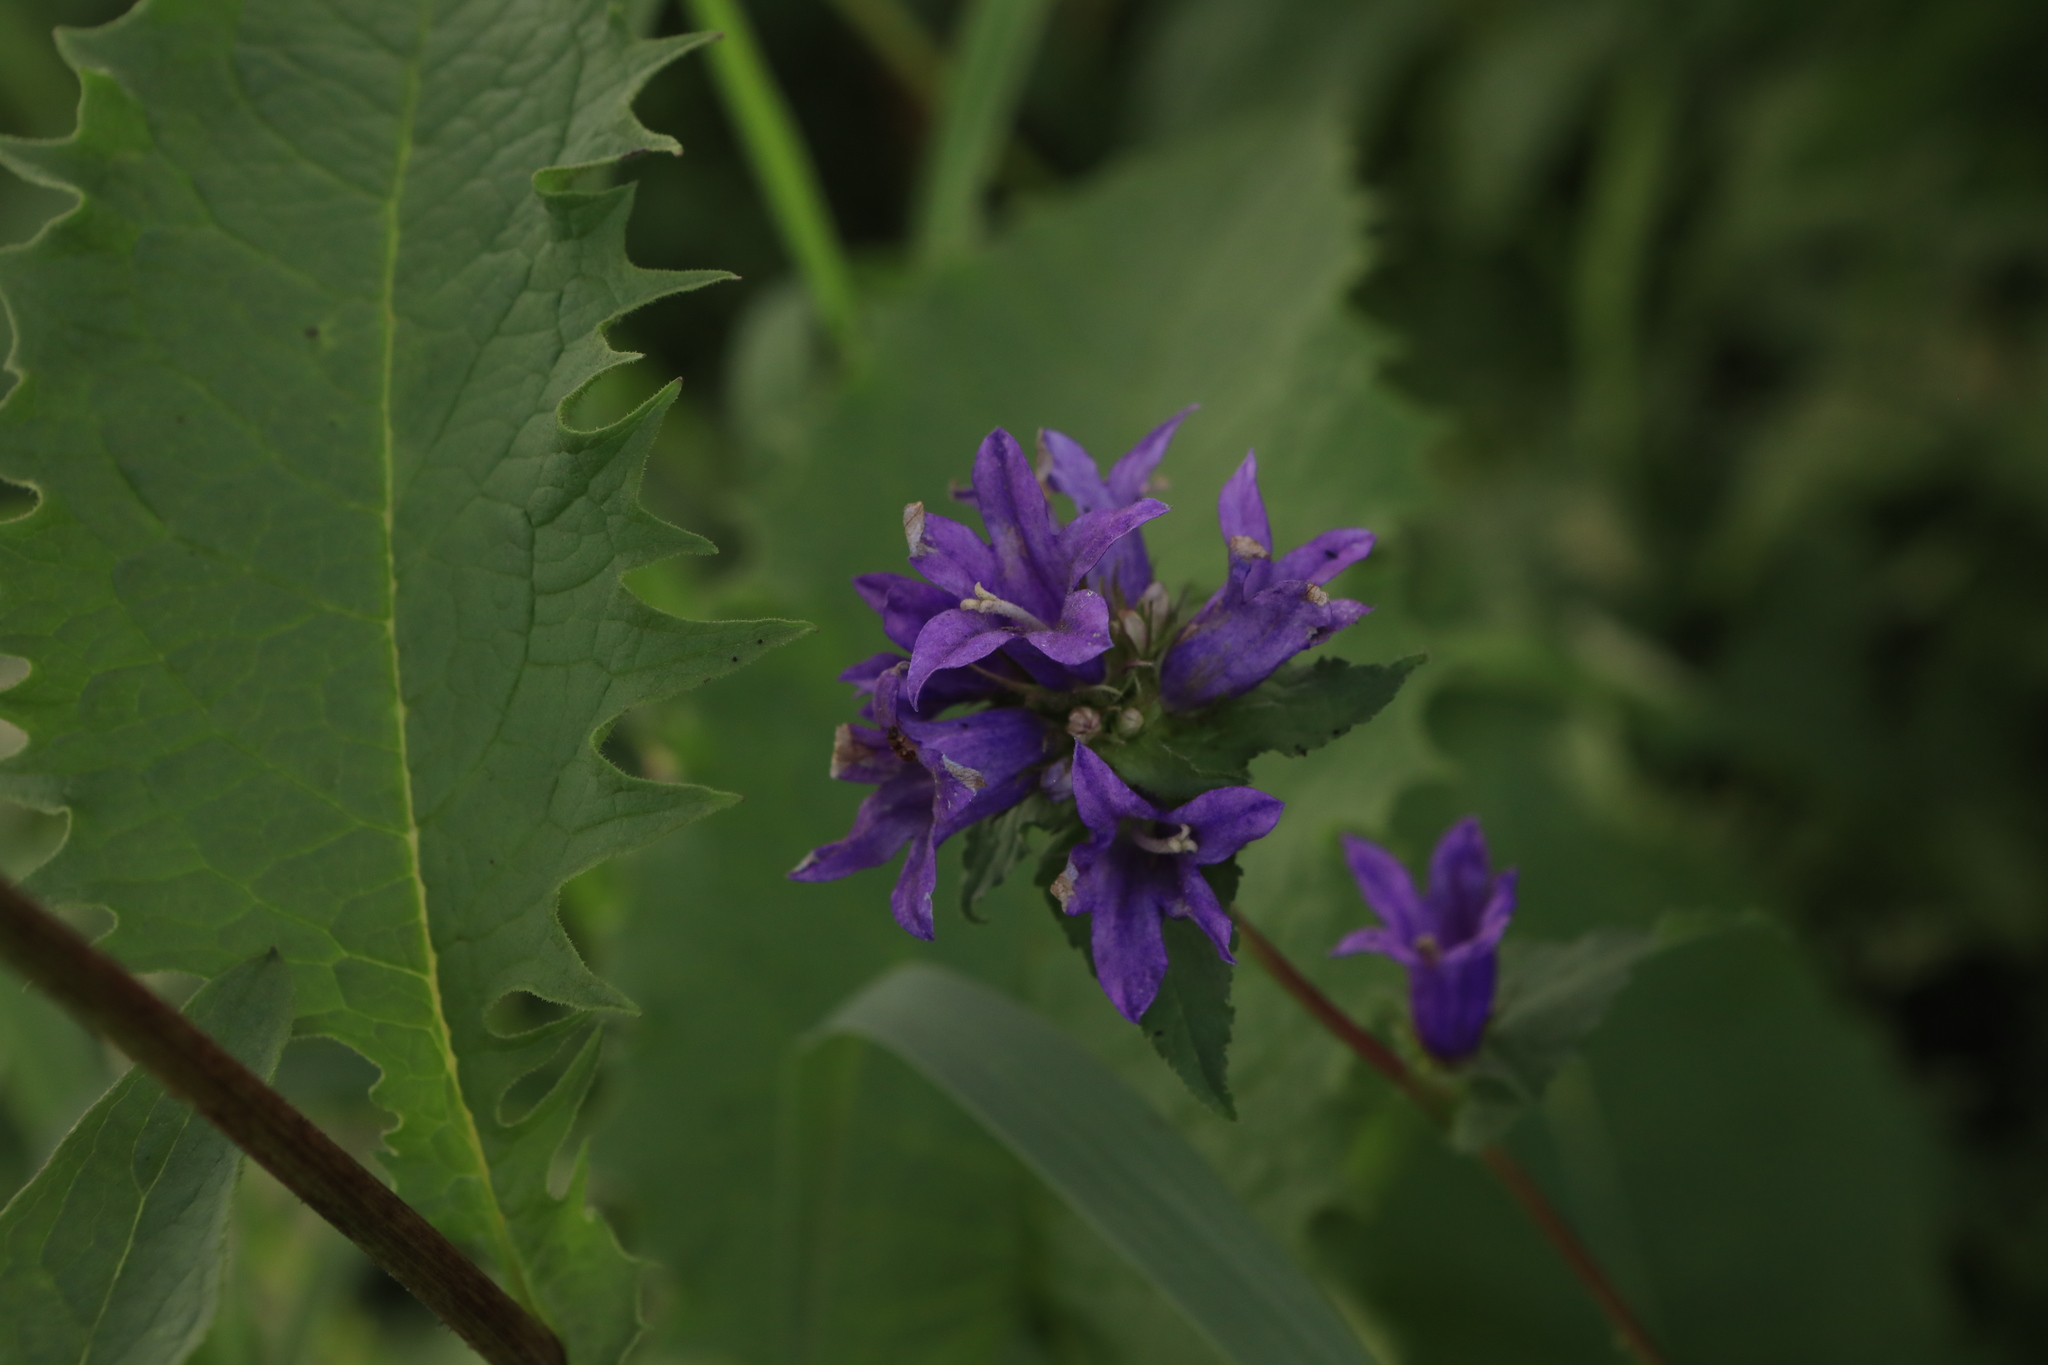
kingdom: Plantae
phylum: Tracheophyta
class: Magnoliopsida
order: Asterales
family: Campanulaceae
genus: Campanula
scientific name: Campanula glomerata
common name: Clustered bellflower
